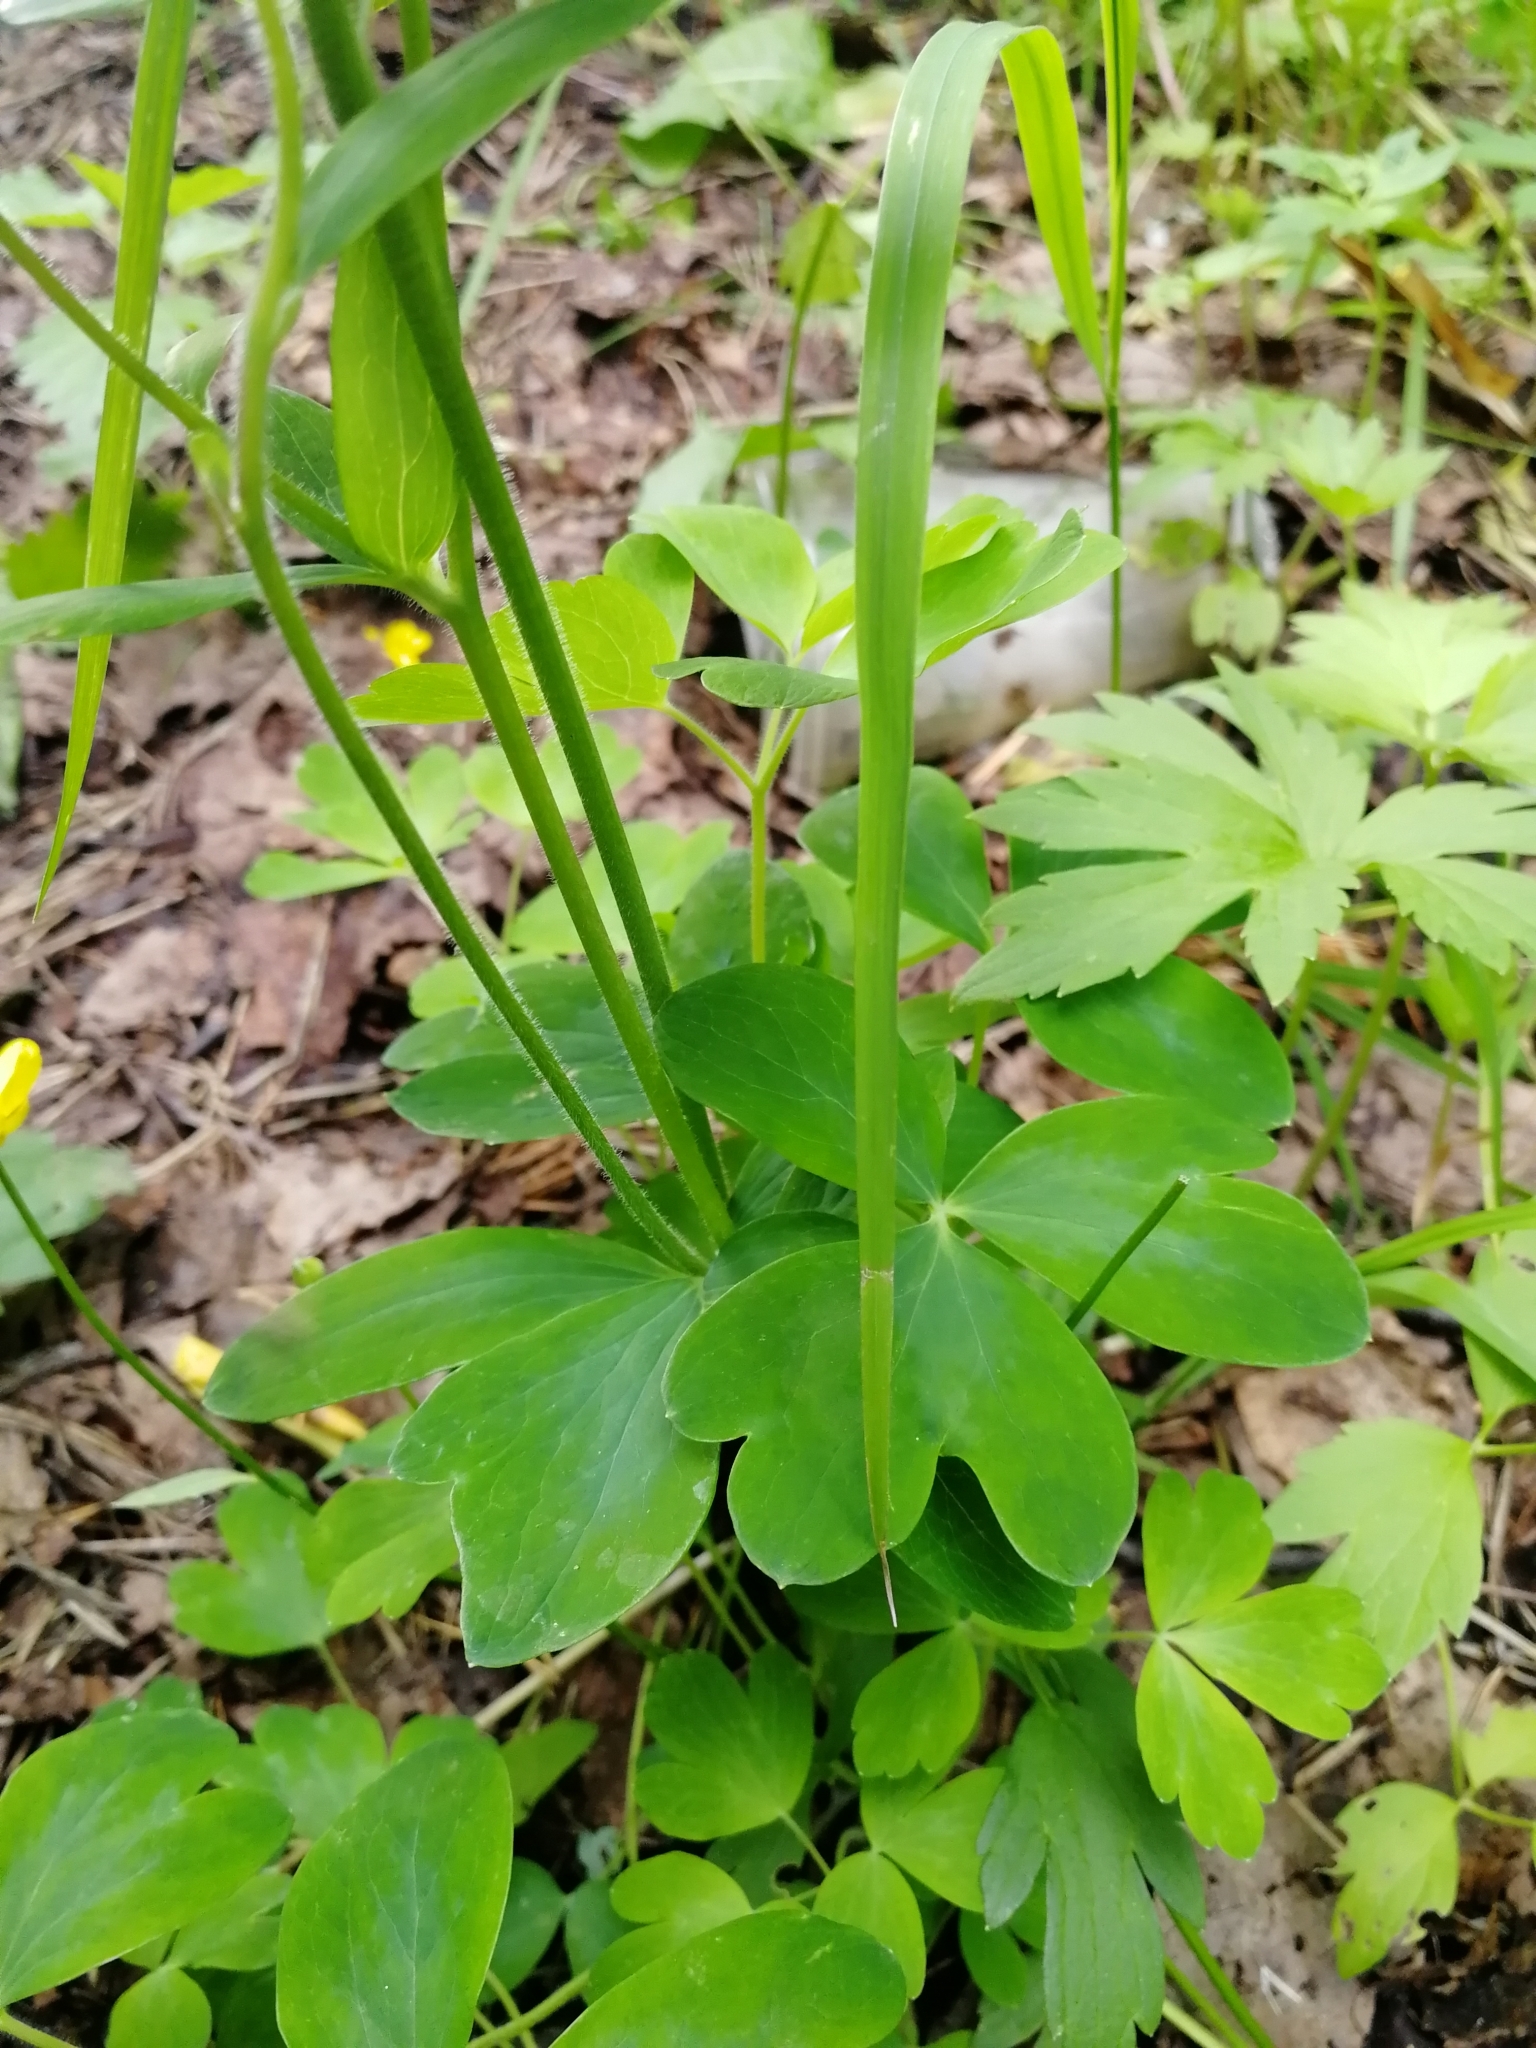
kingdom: Plantae
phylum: Tracheophyta
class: Magnoliopsida
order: Ranunculales
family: Ranunculaceae
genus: Aquilegia
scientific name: Aquilegia vulgaris
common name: Columbine
